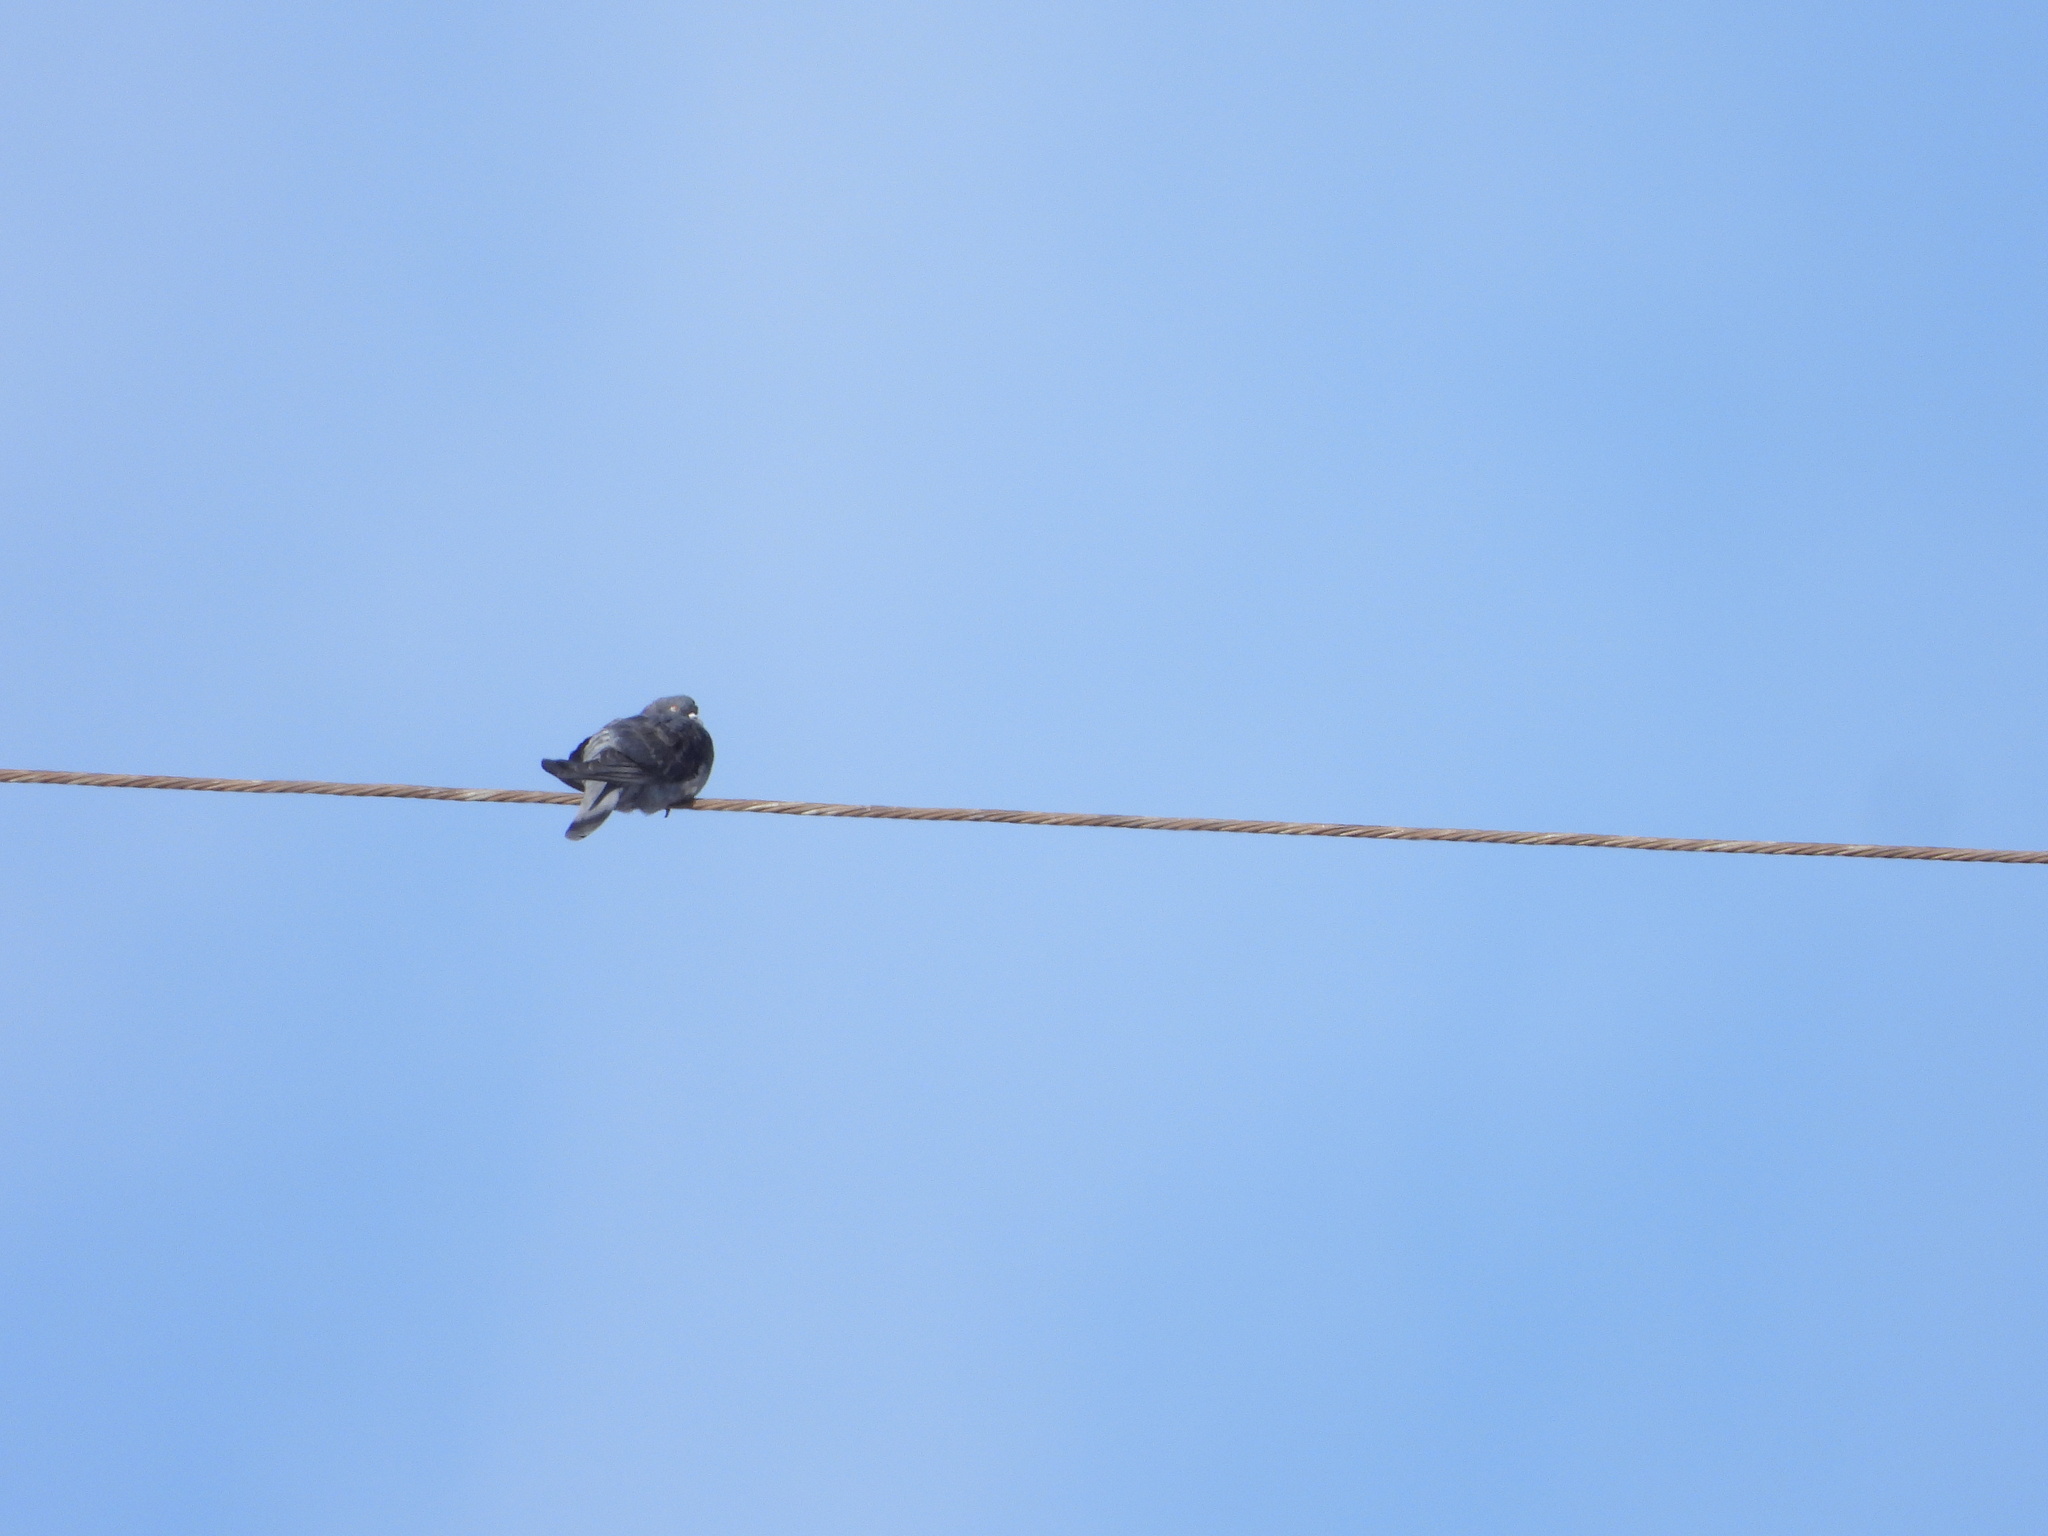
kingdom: Animalia
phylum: Chordata
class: Aves
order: Columbiformes
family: Columbidae
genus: Columba
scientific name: Columba livia
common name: Rock pigeon
